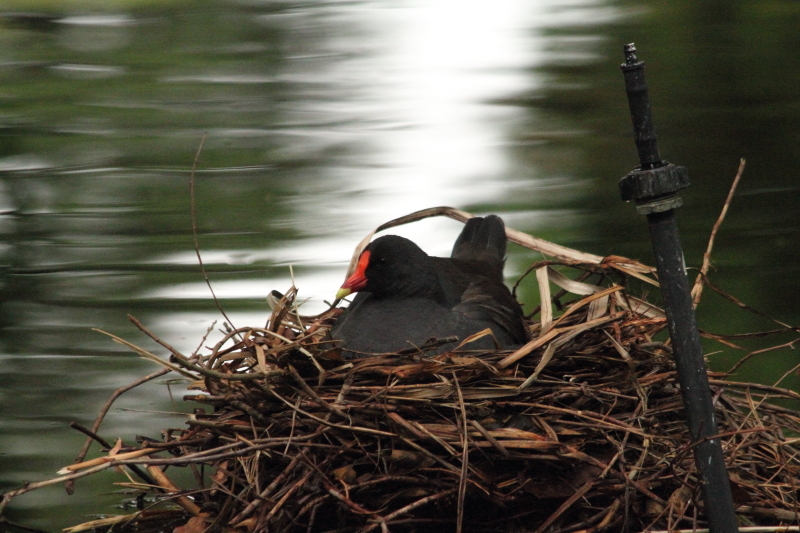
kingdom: Animalia
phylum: Chordata
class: Aves
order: Gruiformes
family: Rallidae
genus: Gallinula
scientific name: Gallinula tenebrosa
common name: Dusky moorhen
